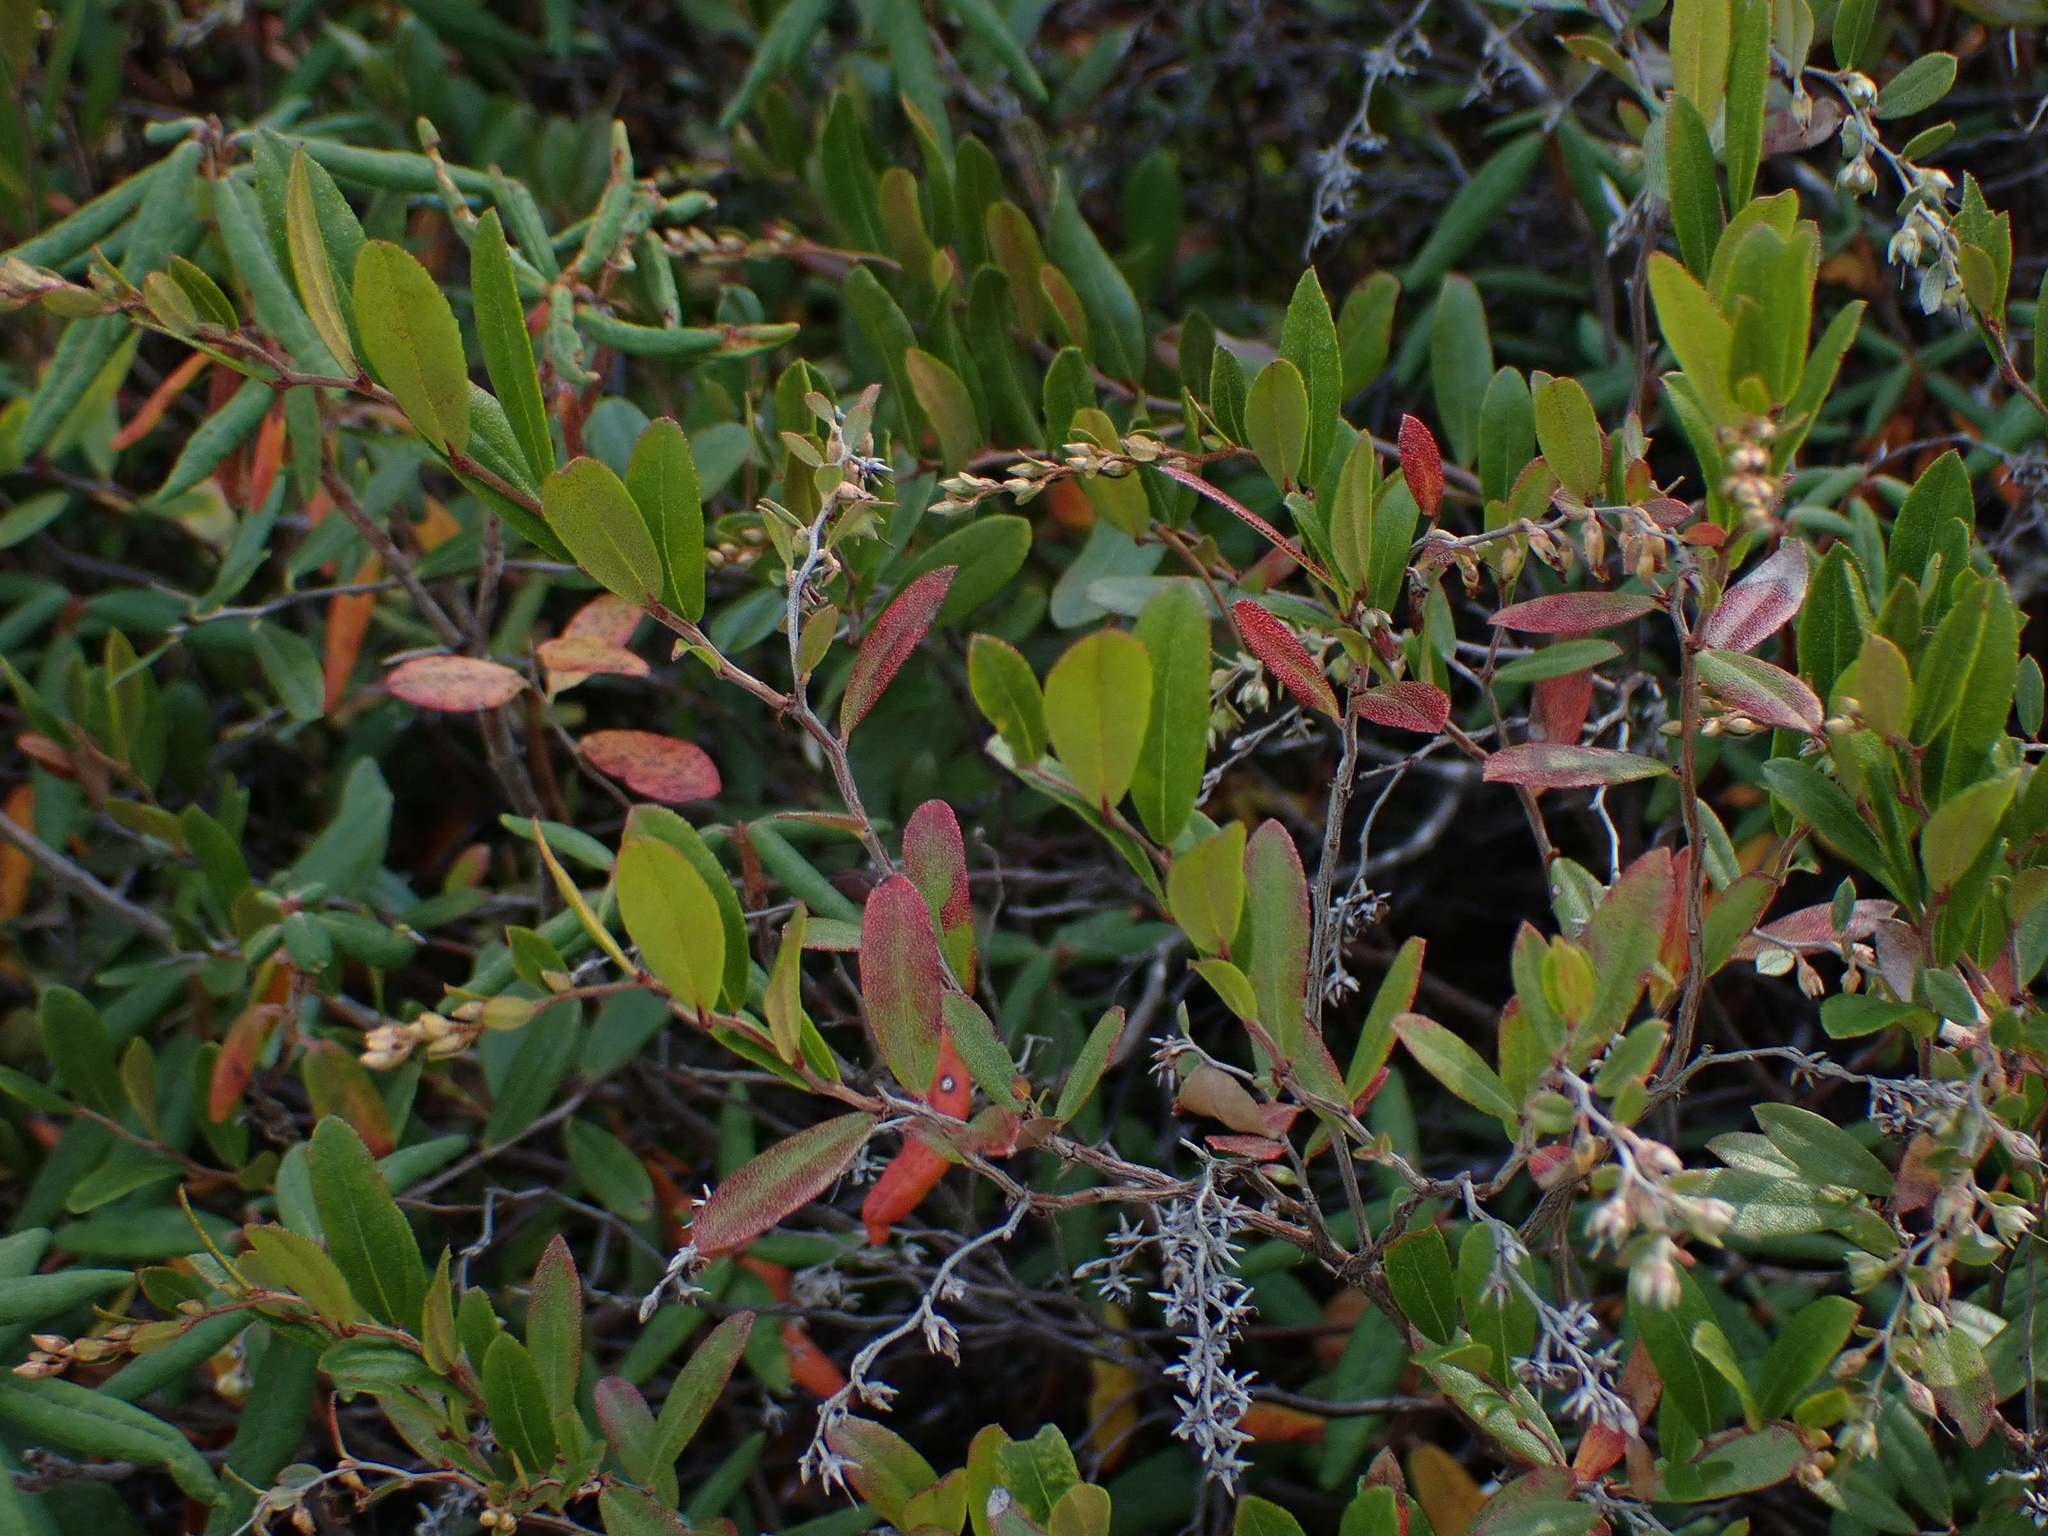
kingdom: Plantae
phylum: Tracheophyta
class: Magnoliopsida
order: Ericales
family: Ericaceae
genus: Chamaedaphne
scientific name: Chamaedaphne calyculata
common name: Leatherleaf
